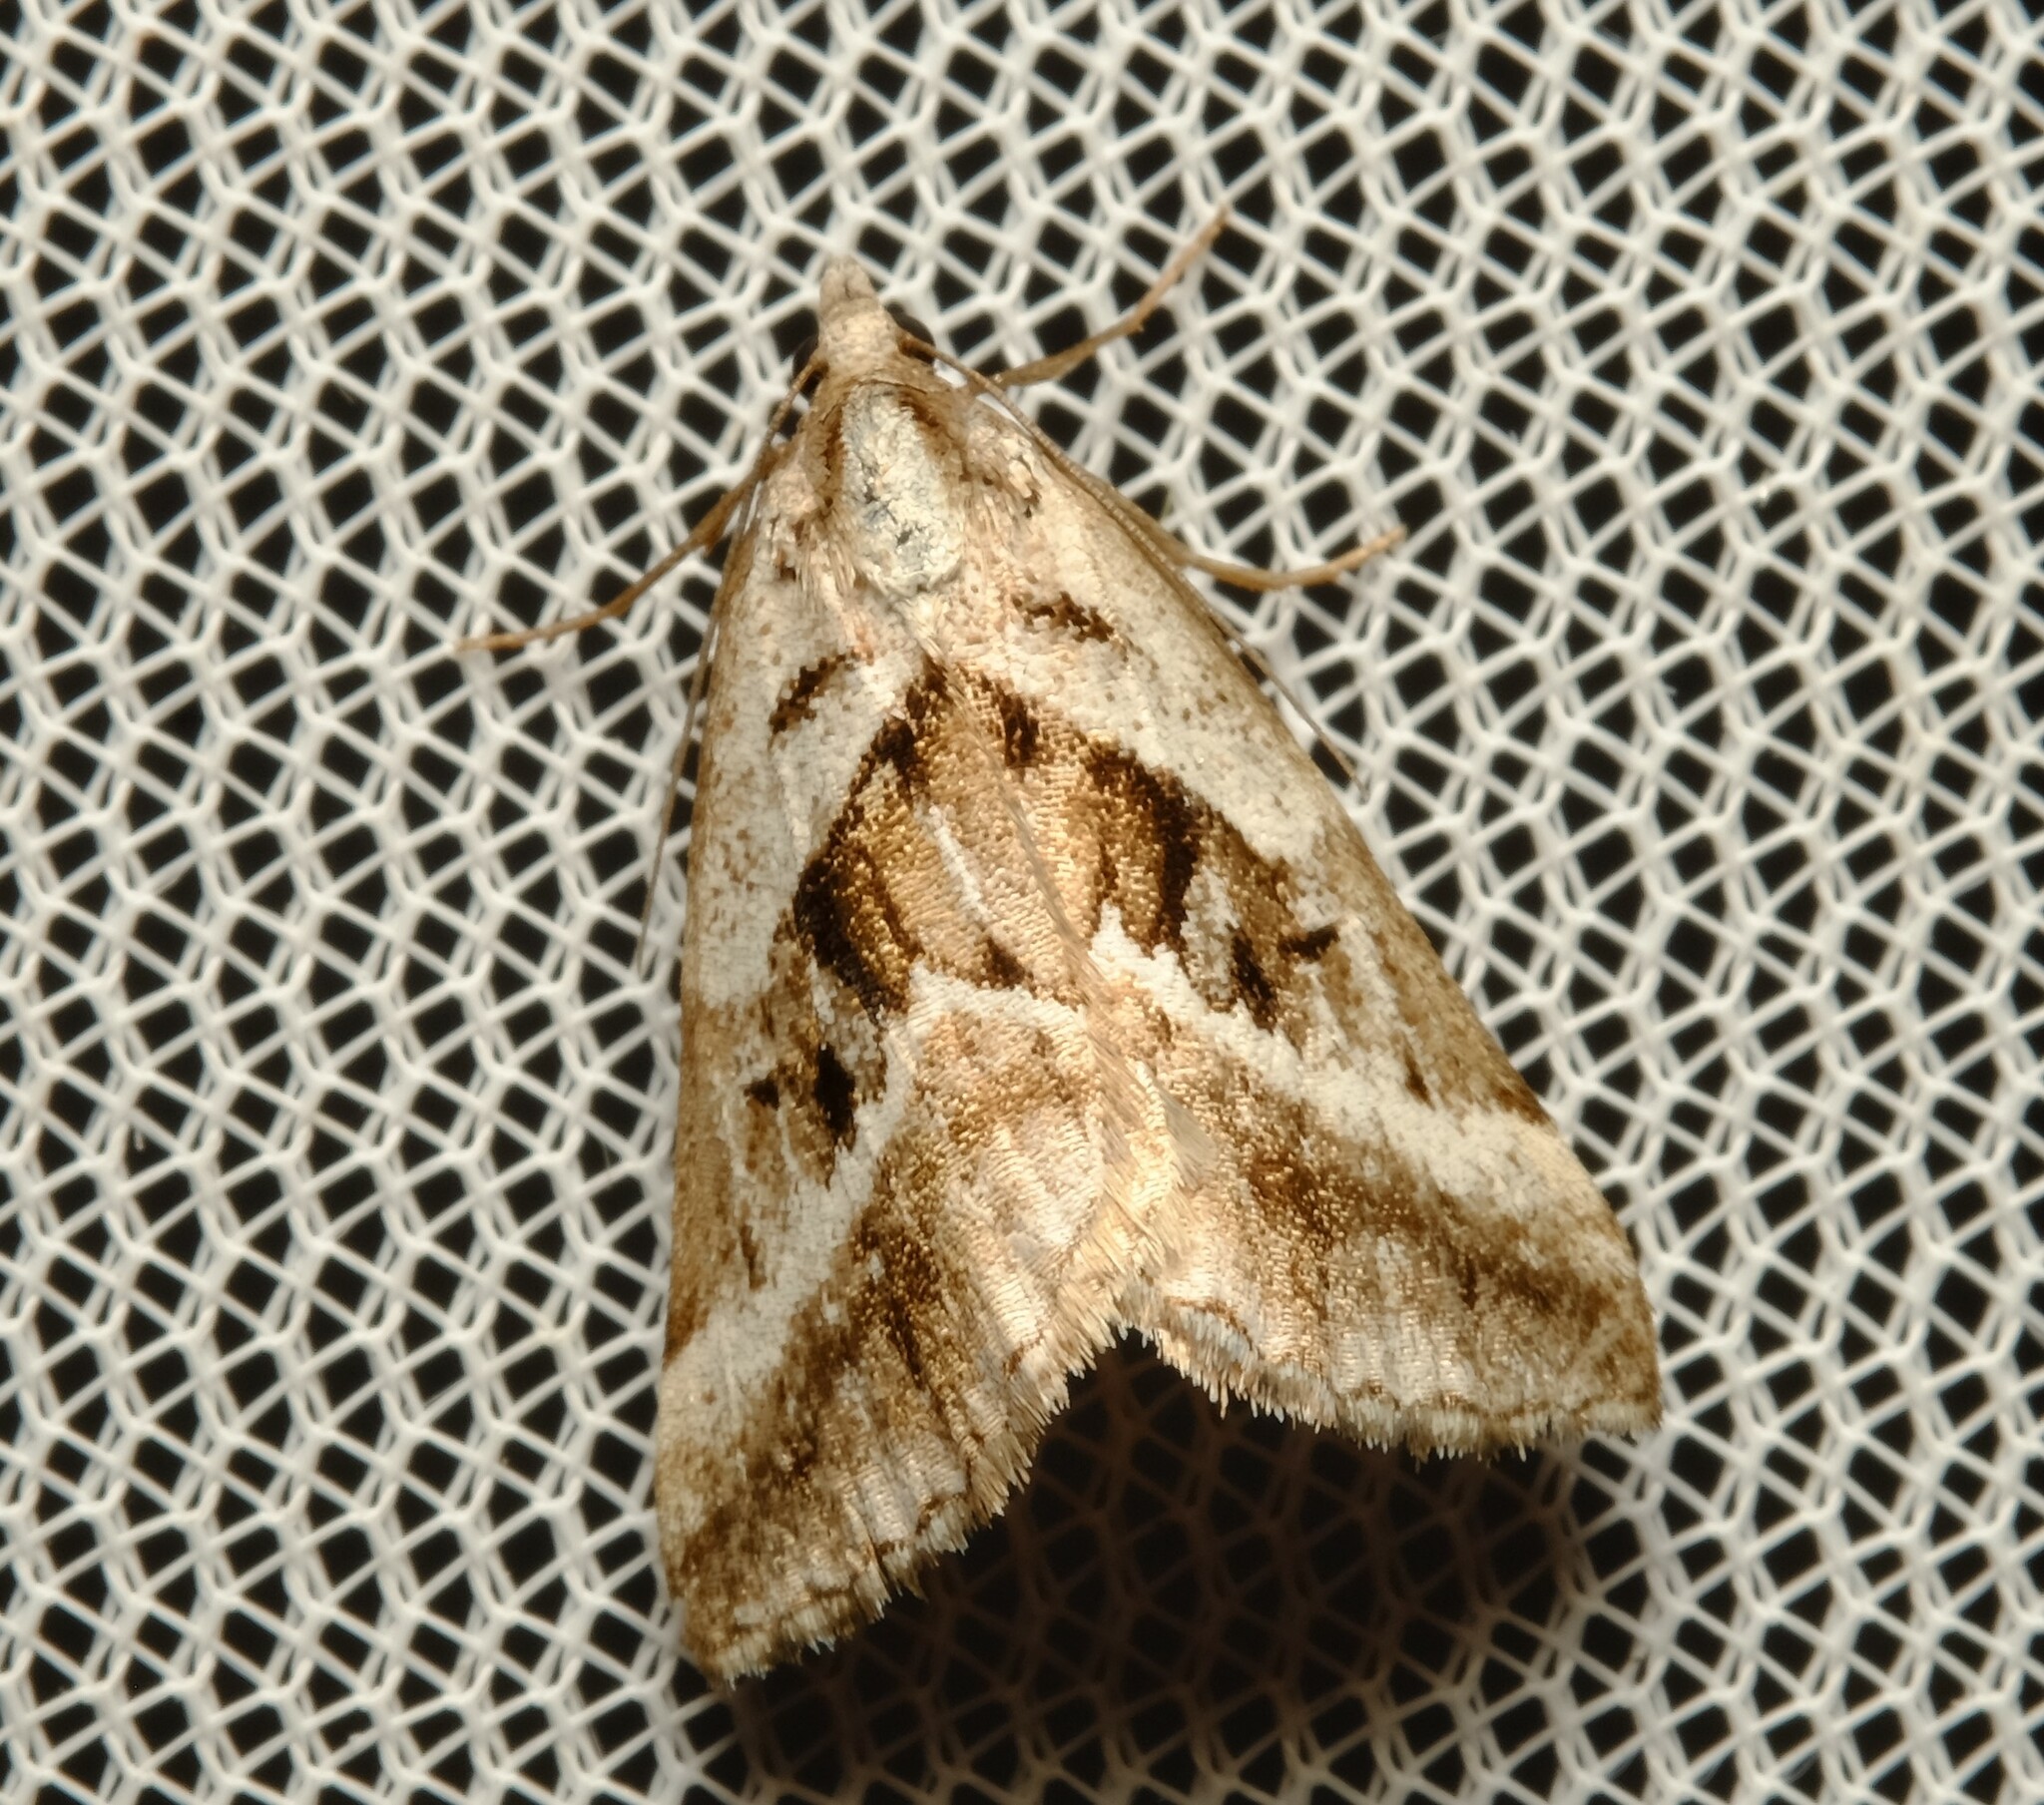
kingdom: Animalia
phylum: Arthropoda
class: Insecta
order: Lepidoptera
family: Geometridae
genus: Dichromodes
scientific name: Dichromodes stilbiata
